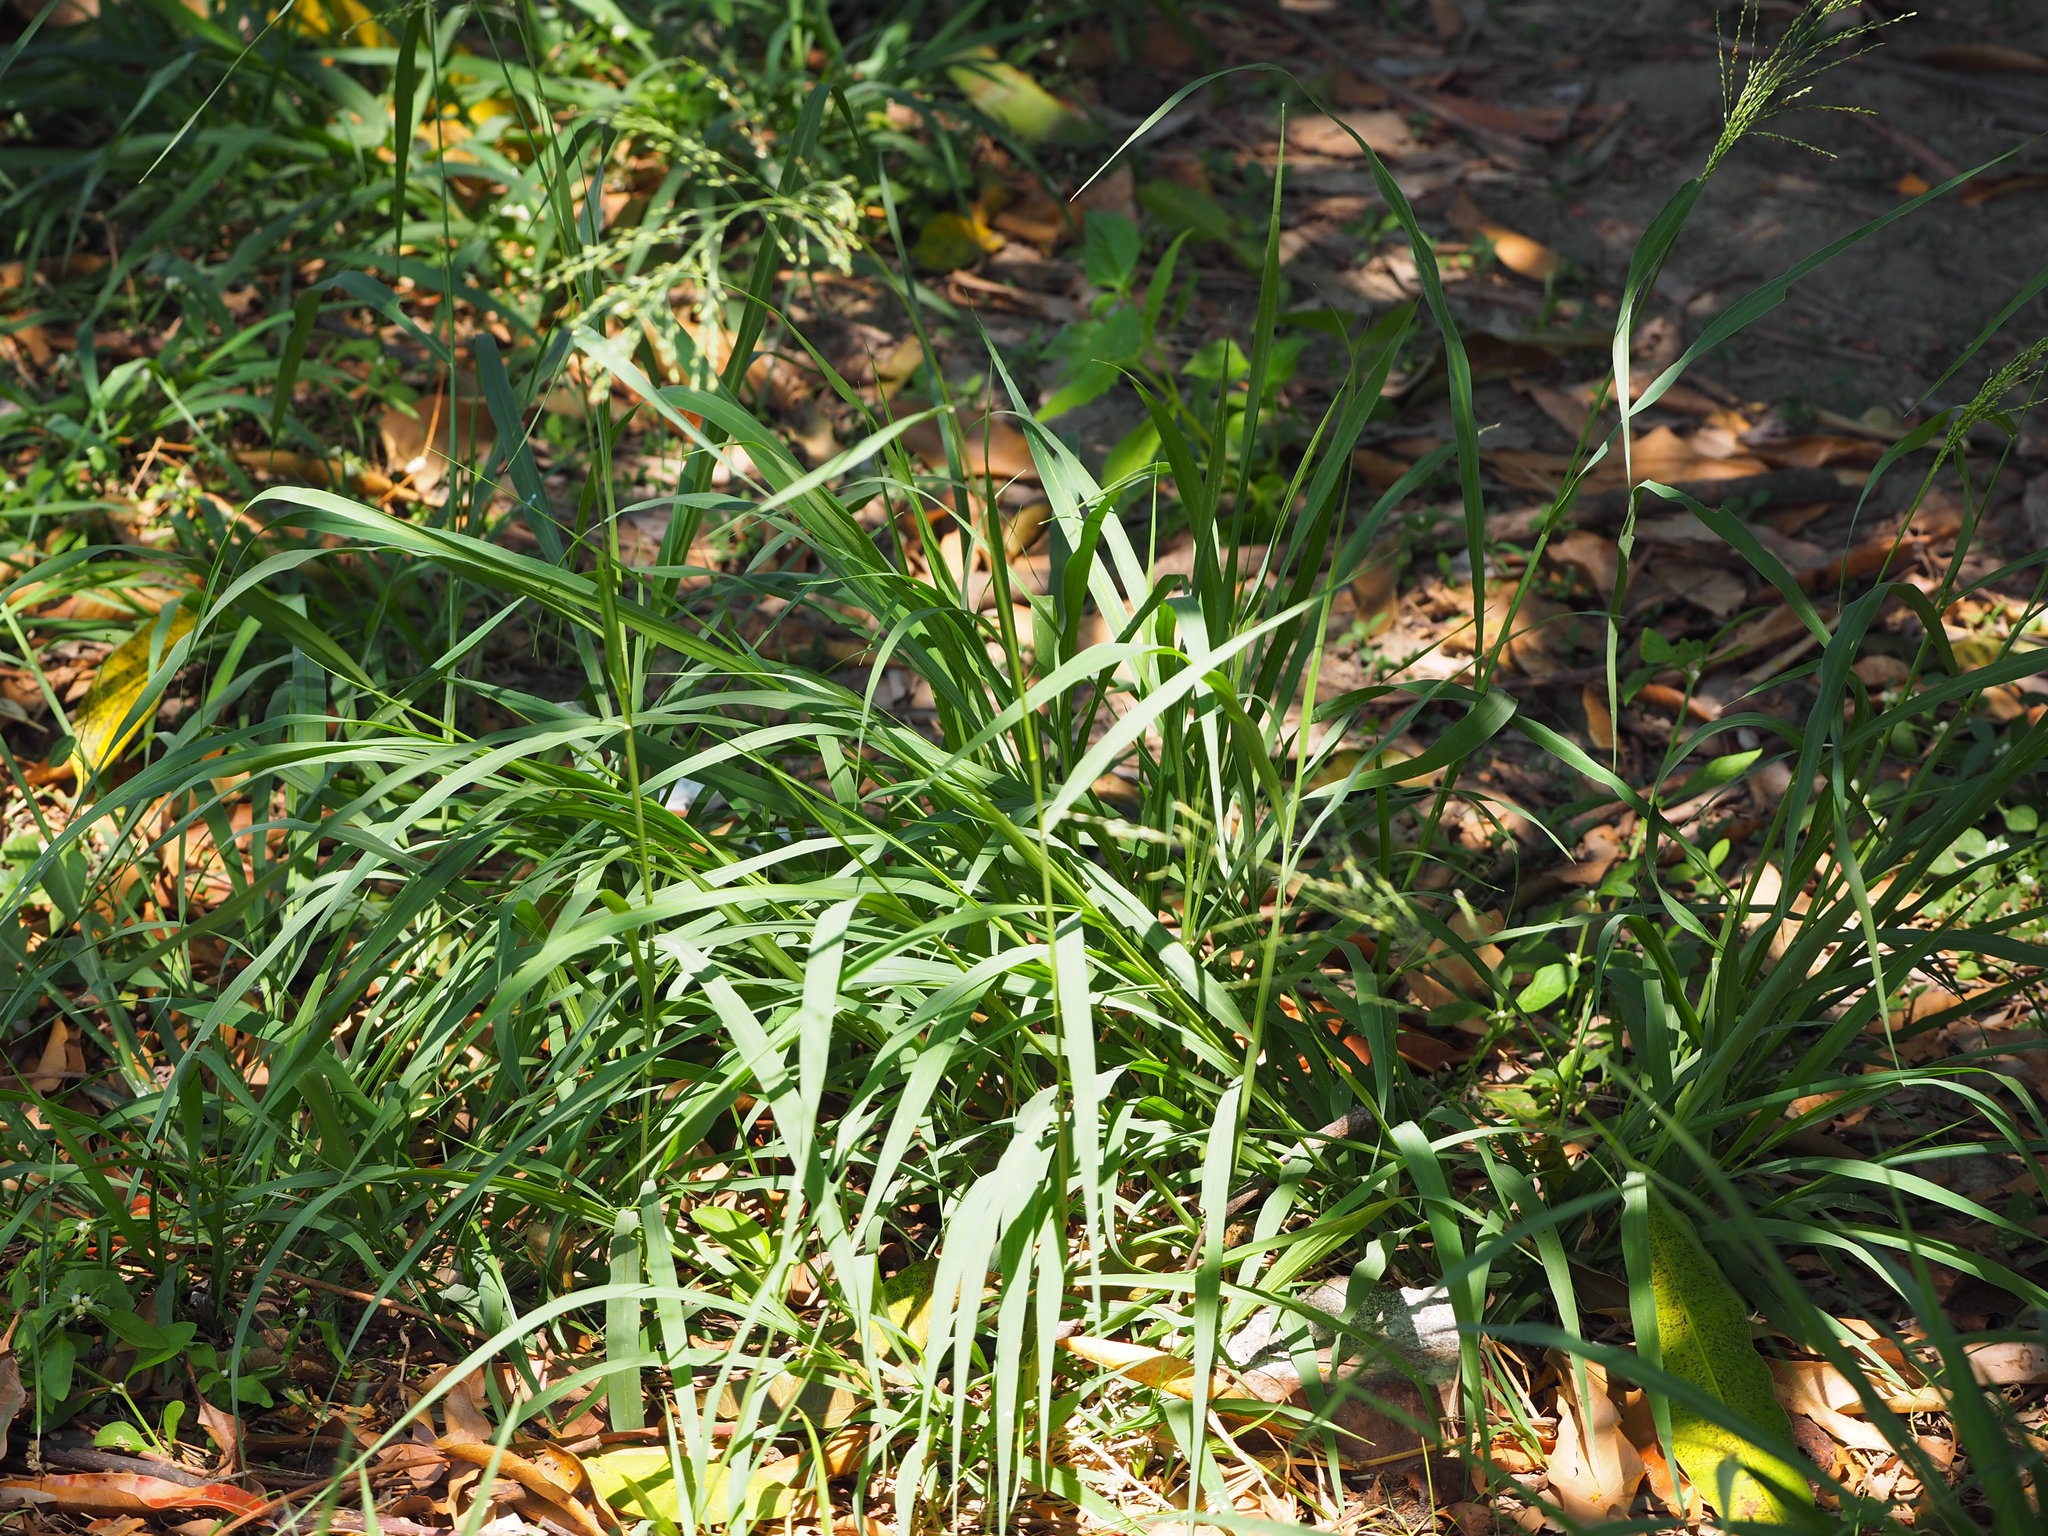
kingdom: Plantae
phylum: Tracheophyta
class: Liliopsida
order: Poales
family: Poaceae
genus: Megathyrsus
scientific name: Megathyrsus maximus
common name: Guineagrass
